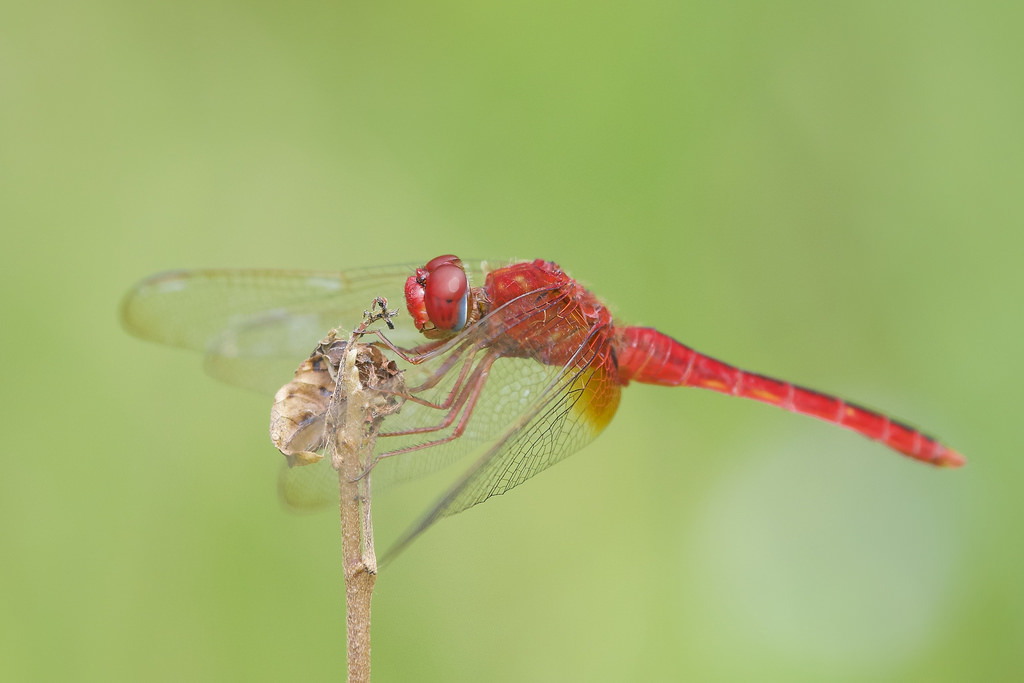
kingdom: Animalia
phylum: Arthropoda
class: Insecta
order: Odonata
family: Libellulidae
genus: Crocothemis
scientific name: Crocothemis servilia
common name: Scarlet skimmer
